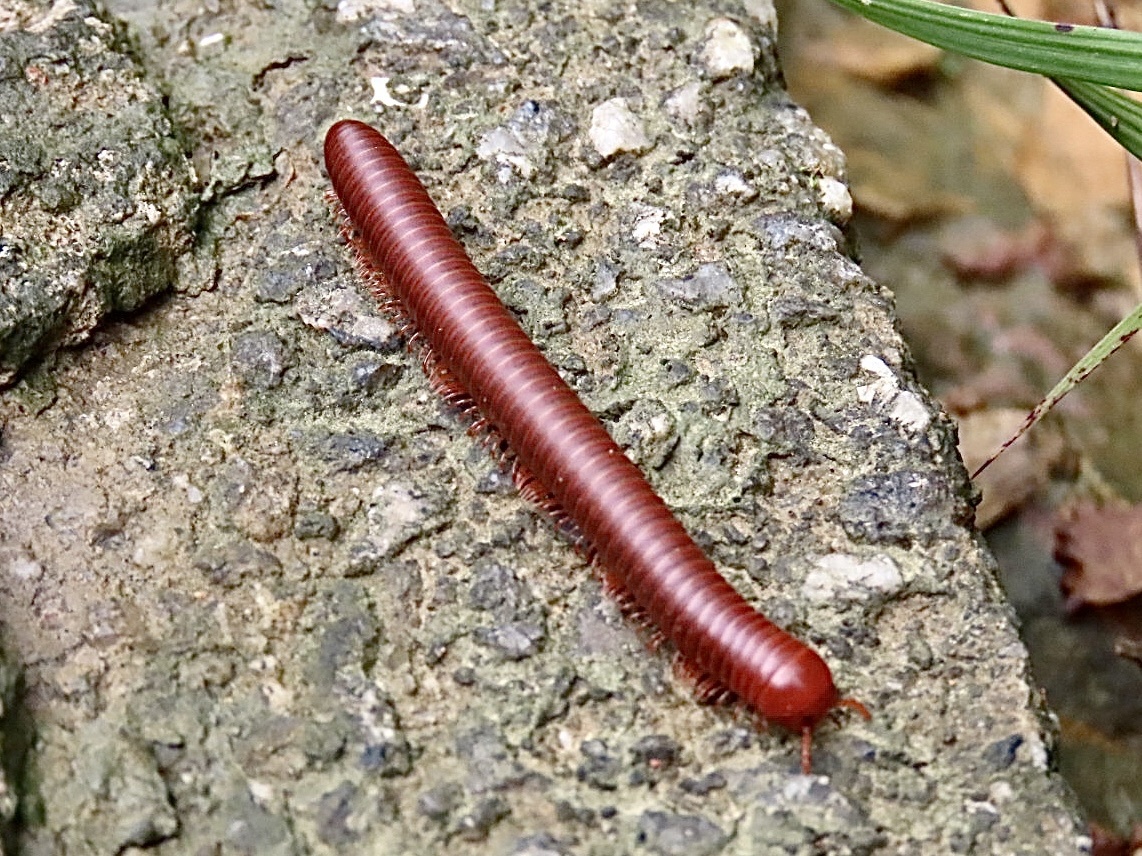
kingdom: Animalia
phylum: Arthropoda
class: Diplopoda
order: Spirobolida
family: Pachybolidae
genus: Trigoniulus
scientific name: Trigoniulus corallinus
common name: Millipede
